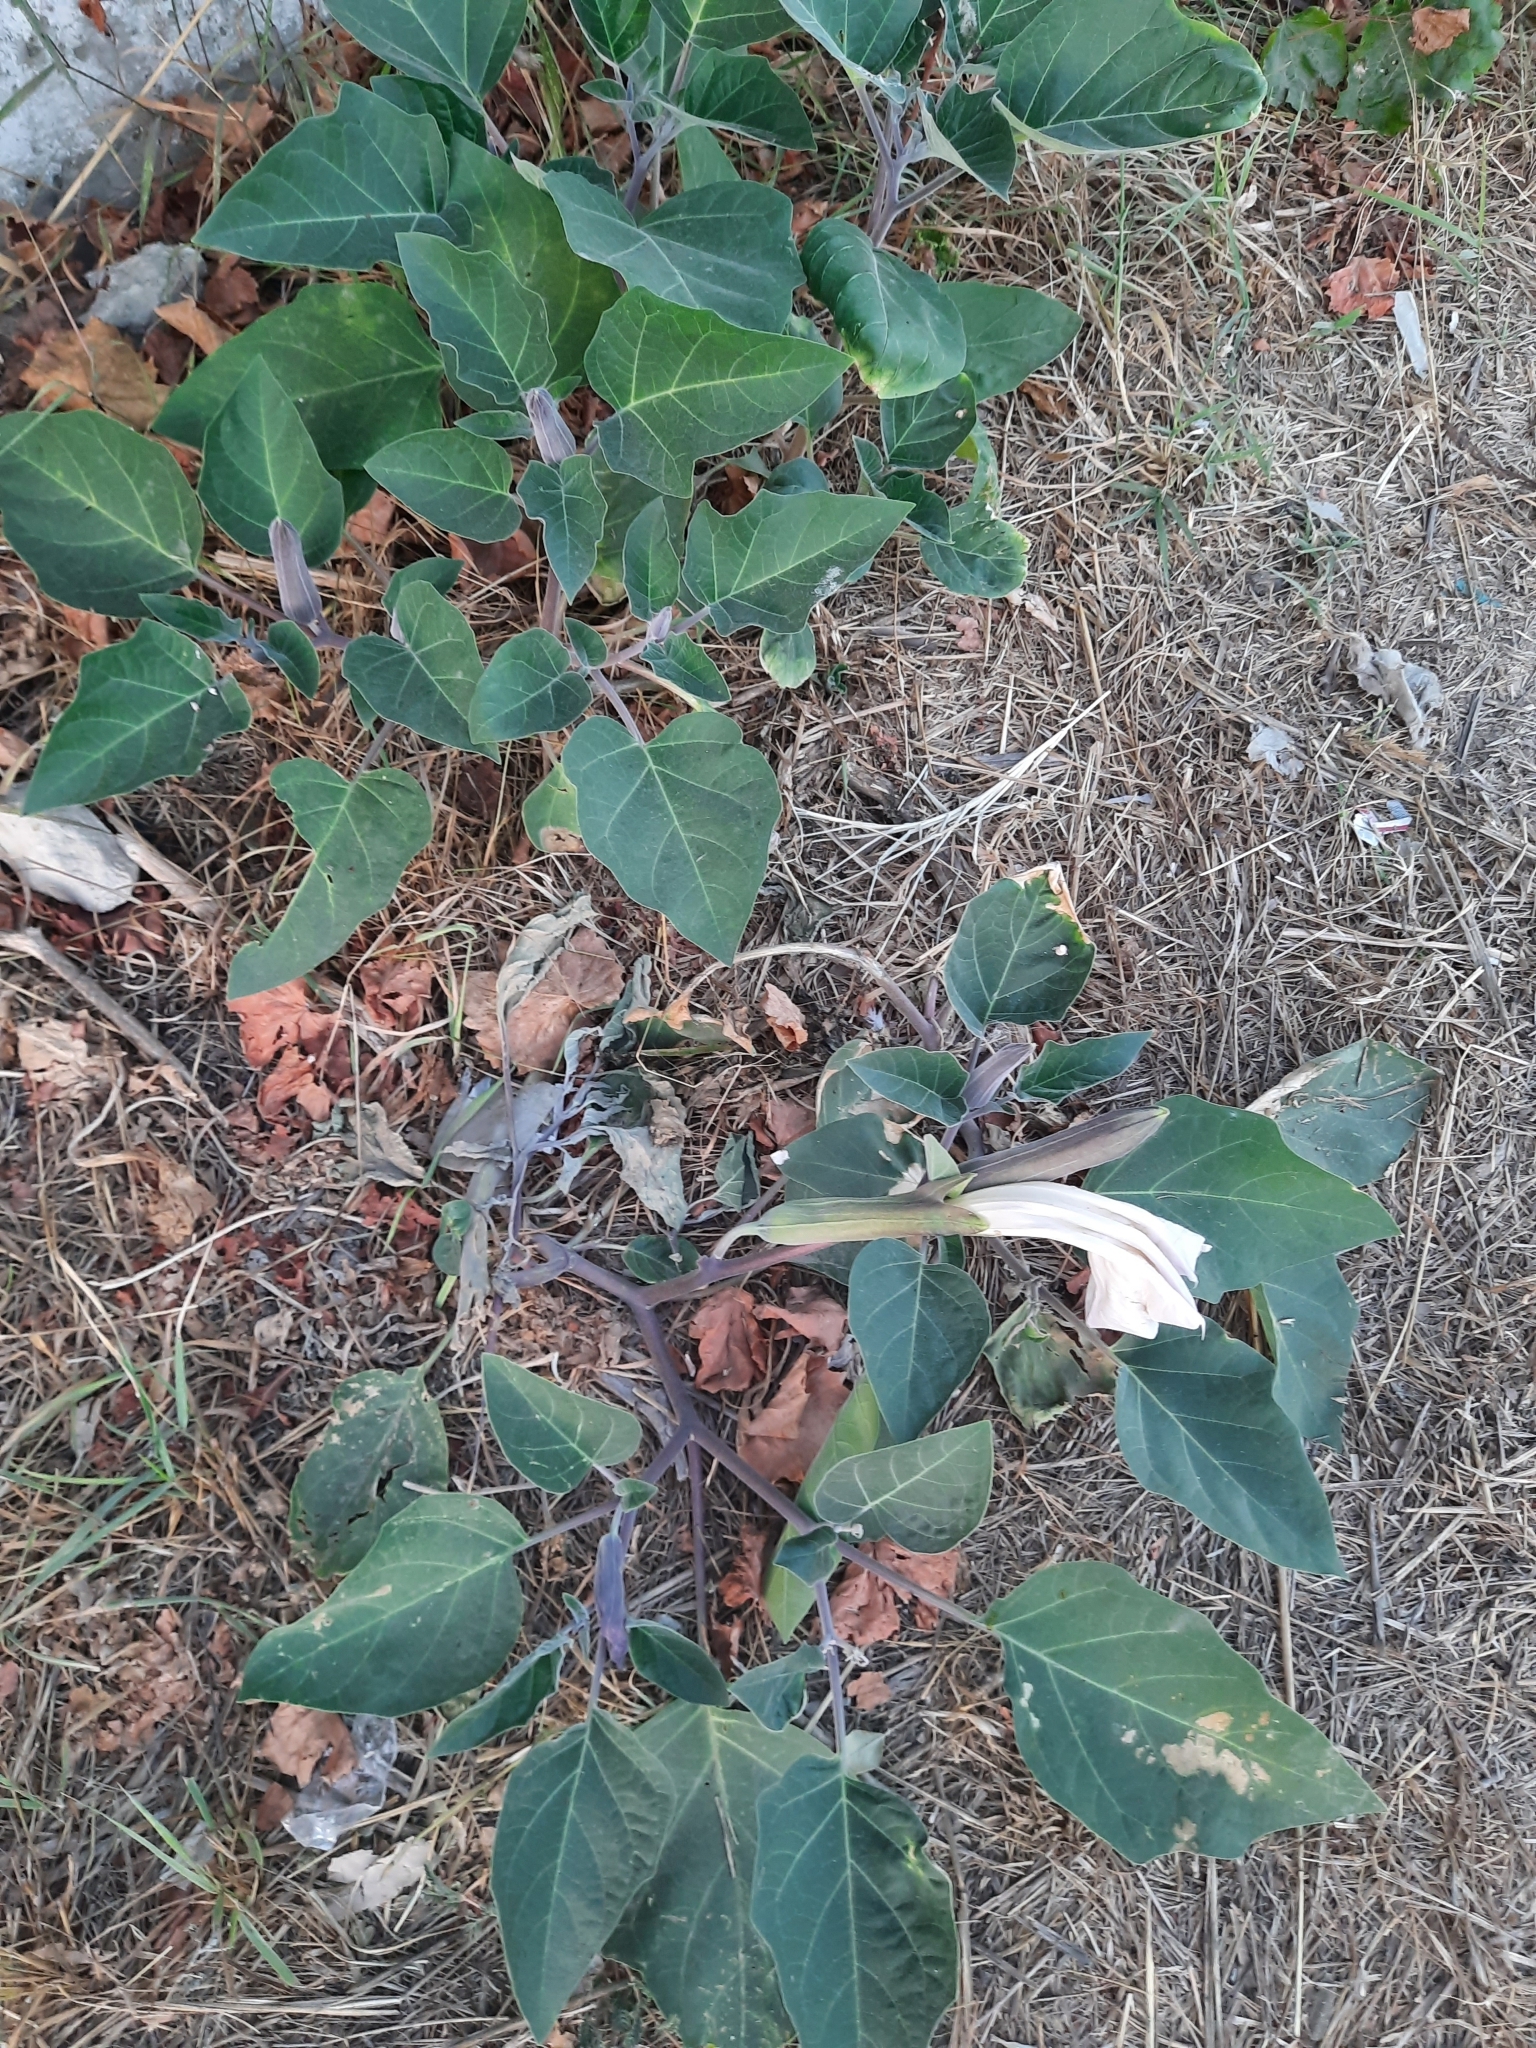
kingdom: Plantae
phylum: Tracheophyta
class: Magnoliopsida
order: Solanales
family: Solanaceae
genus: Datura
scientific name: Datura innoxia
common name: Downy thorn-apple
